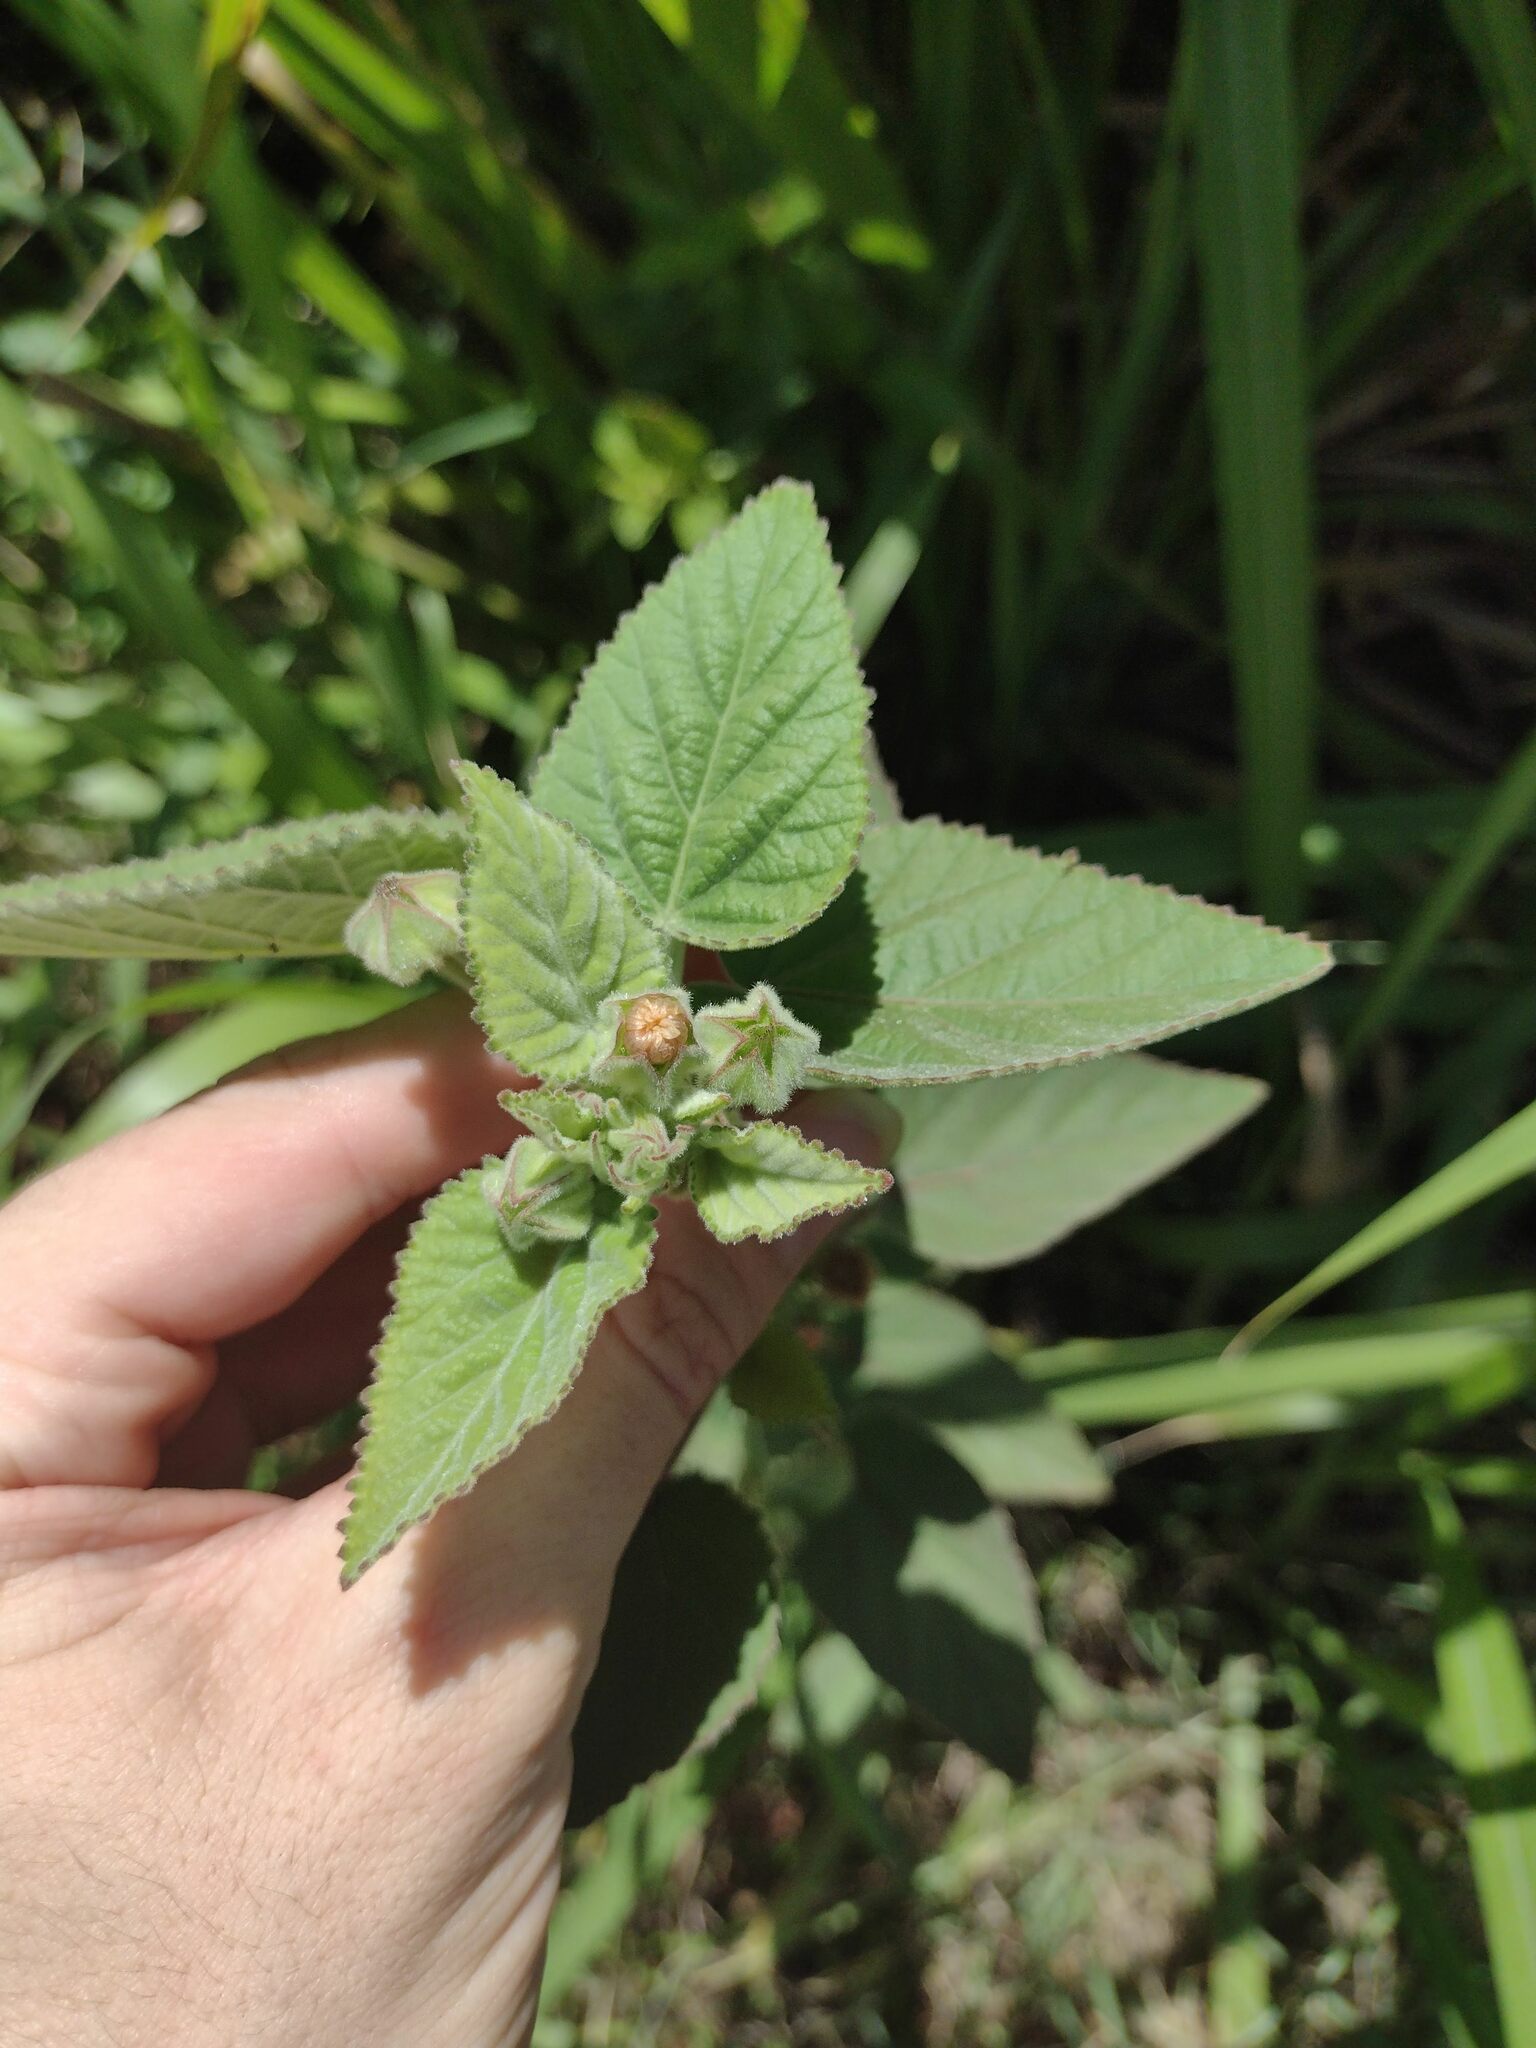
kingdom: Plantae
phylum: Tracheophyta
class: Magnoliopsida
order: Malvales
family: Malvaceae
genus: Sida
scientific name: Sida cordifolia
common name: Ilima
